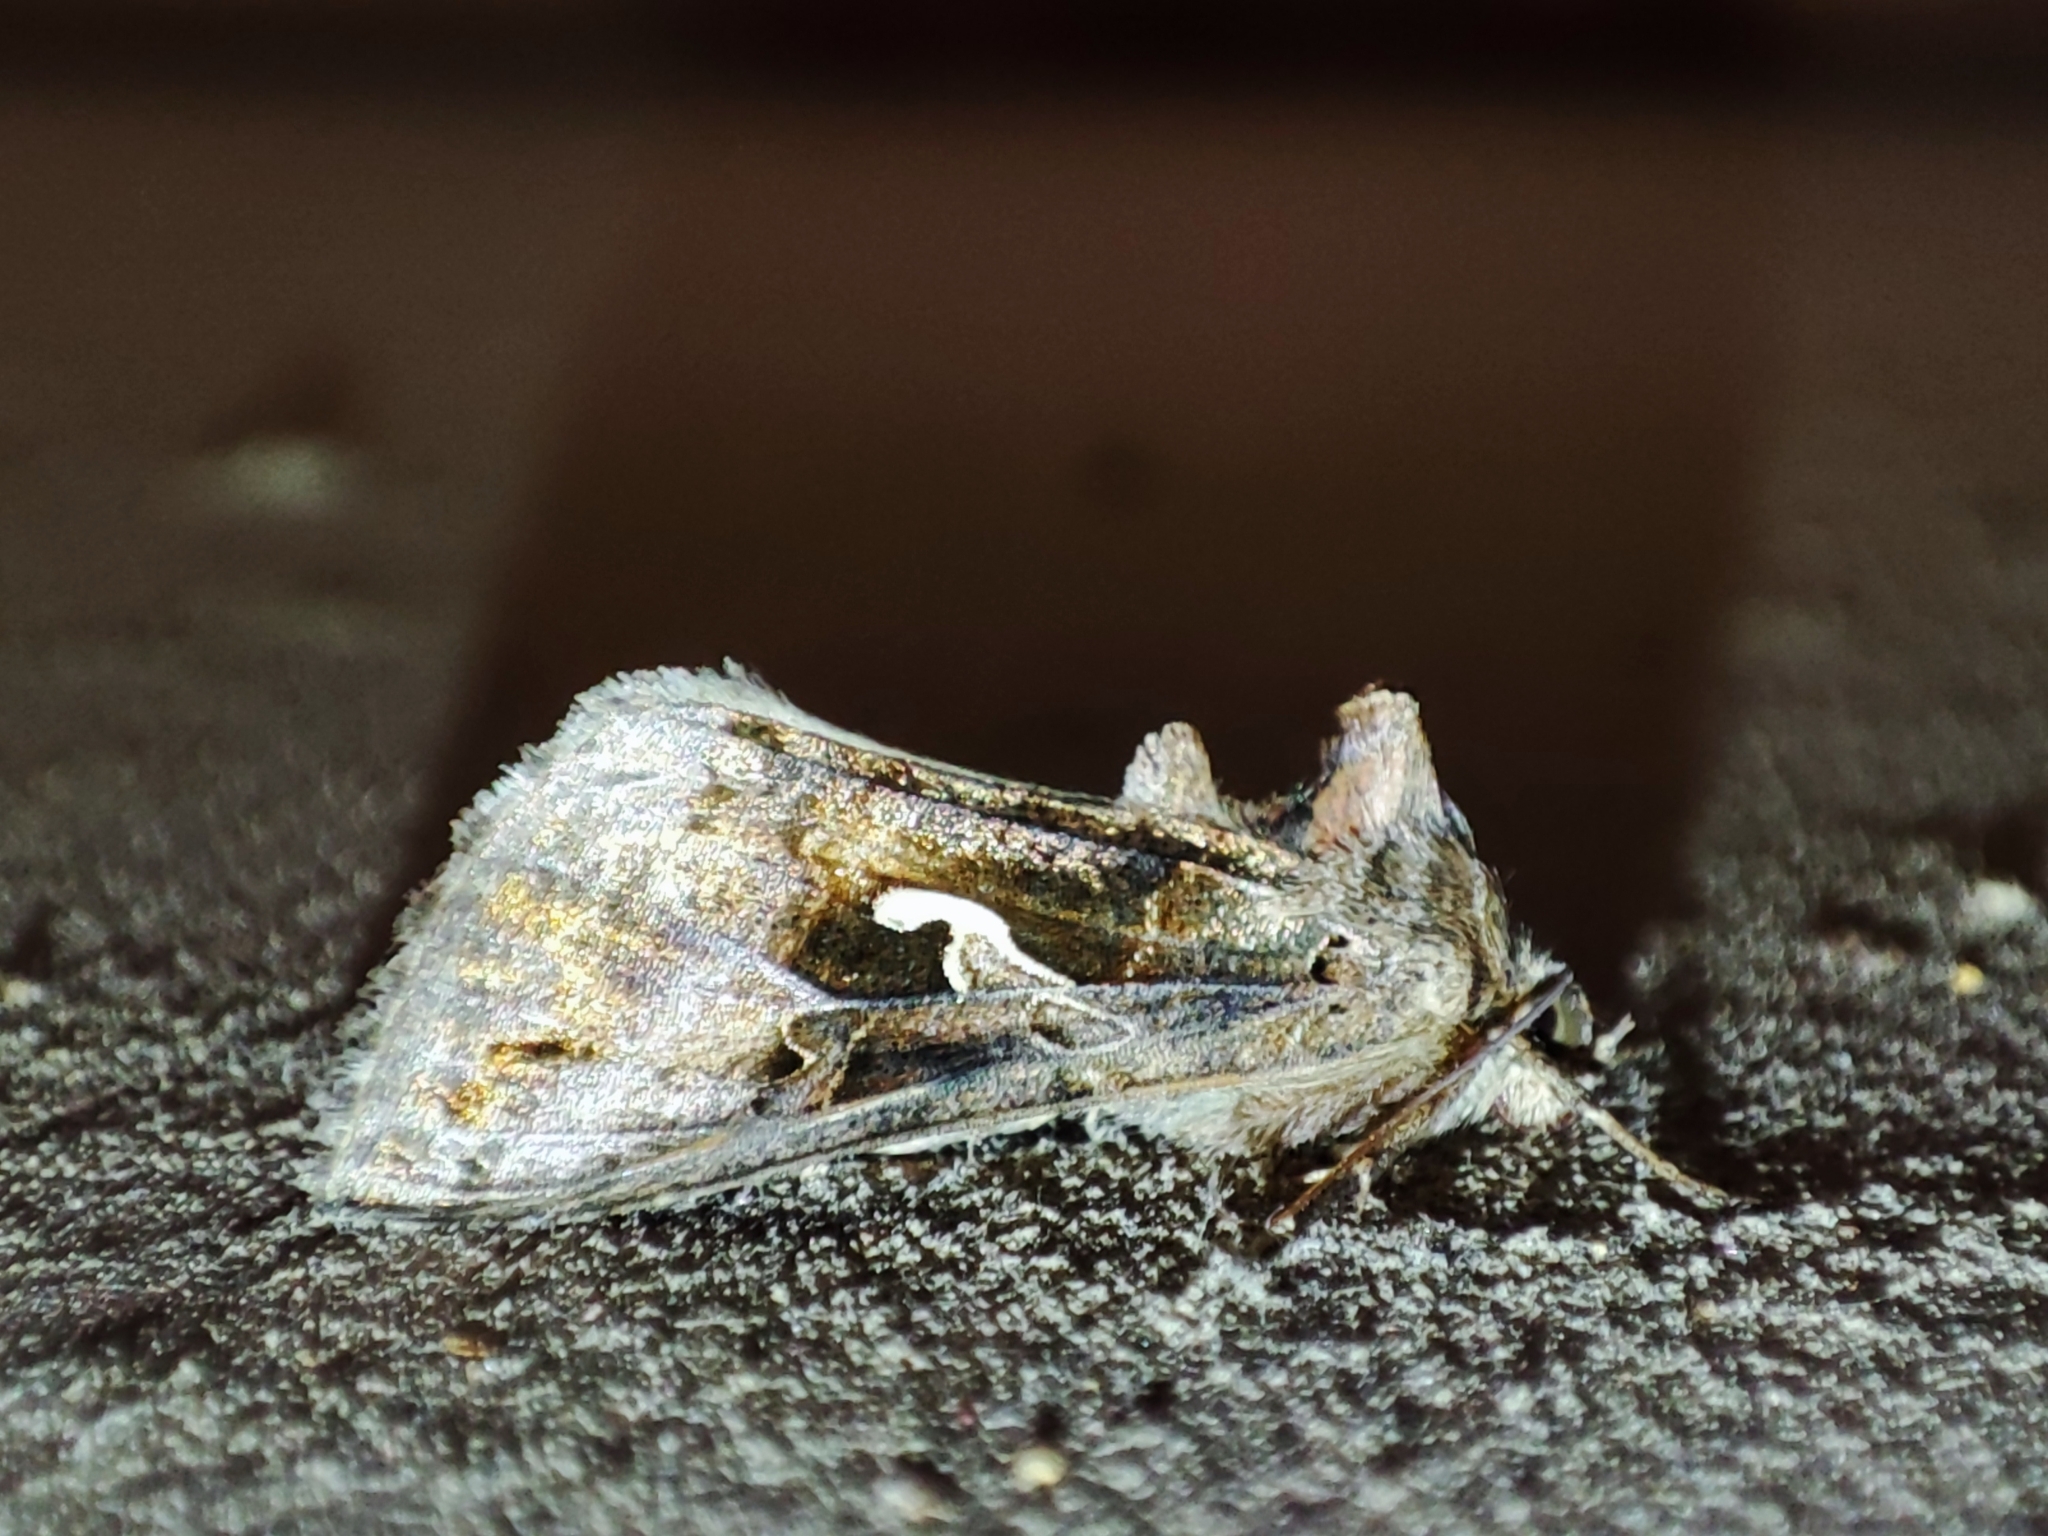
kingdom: Animalia
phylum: Arthropoda
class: Insecta
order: Lepidoptera
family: Noctuidae
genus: Autographa
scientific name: Autographa gamma
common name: Silver y
